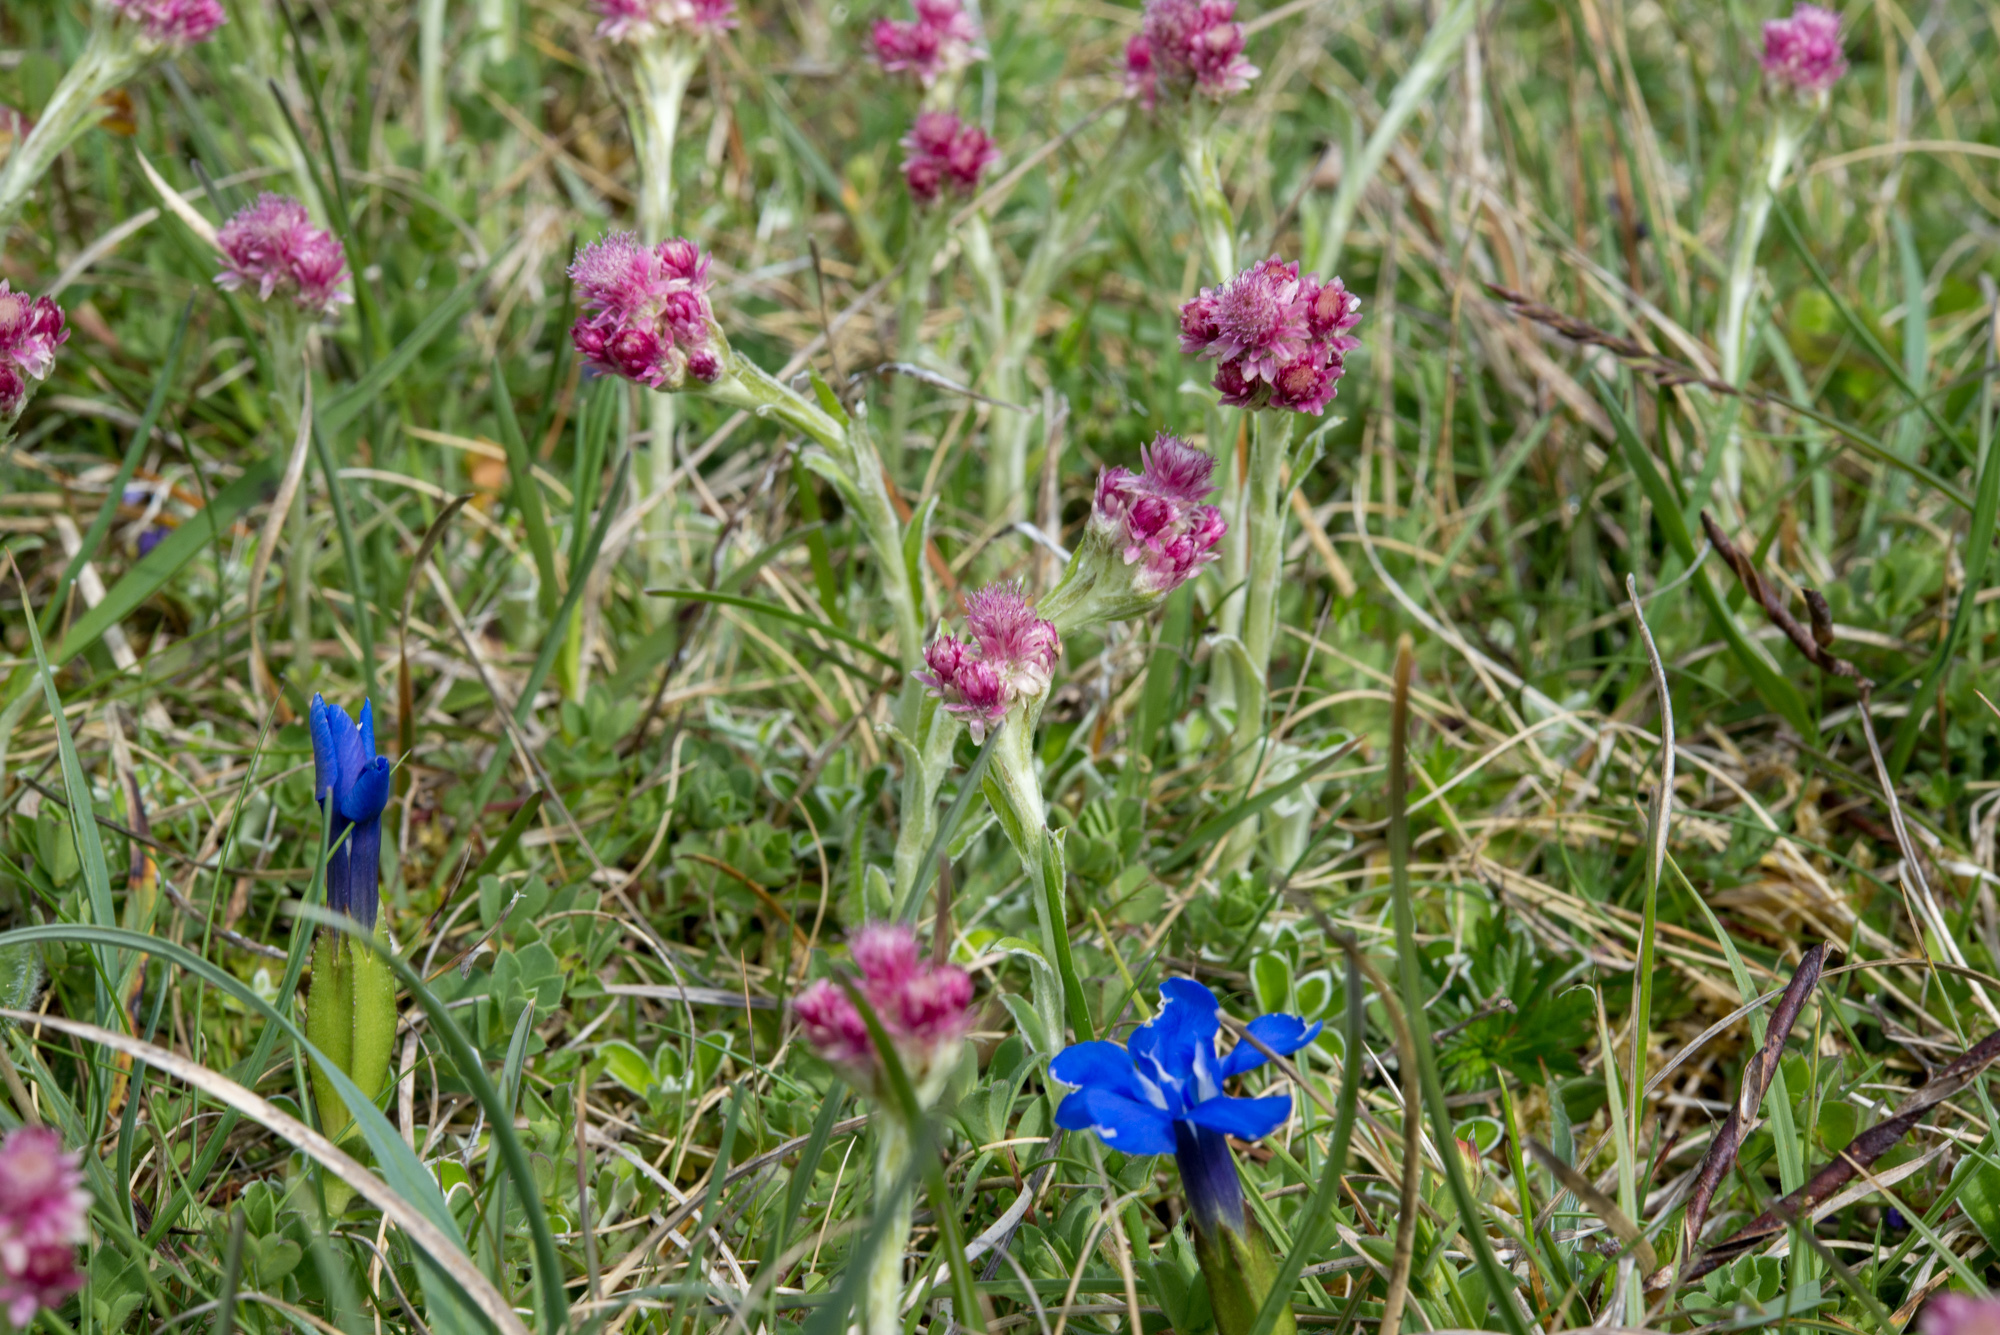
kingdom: Plantae
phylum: Tracheophyta
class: Magnoliopsida
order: Asterales
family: Asteraceae
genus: Antennaria
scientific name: Antennaria dioica
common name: Mountain everlasting
